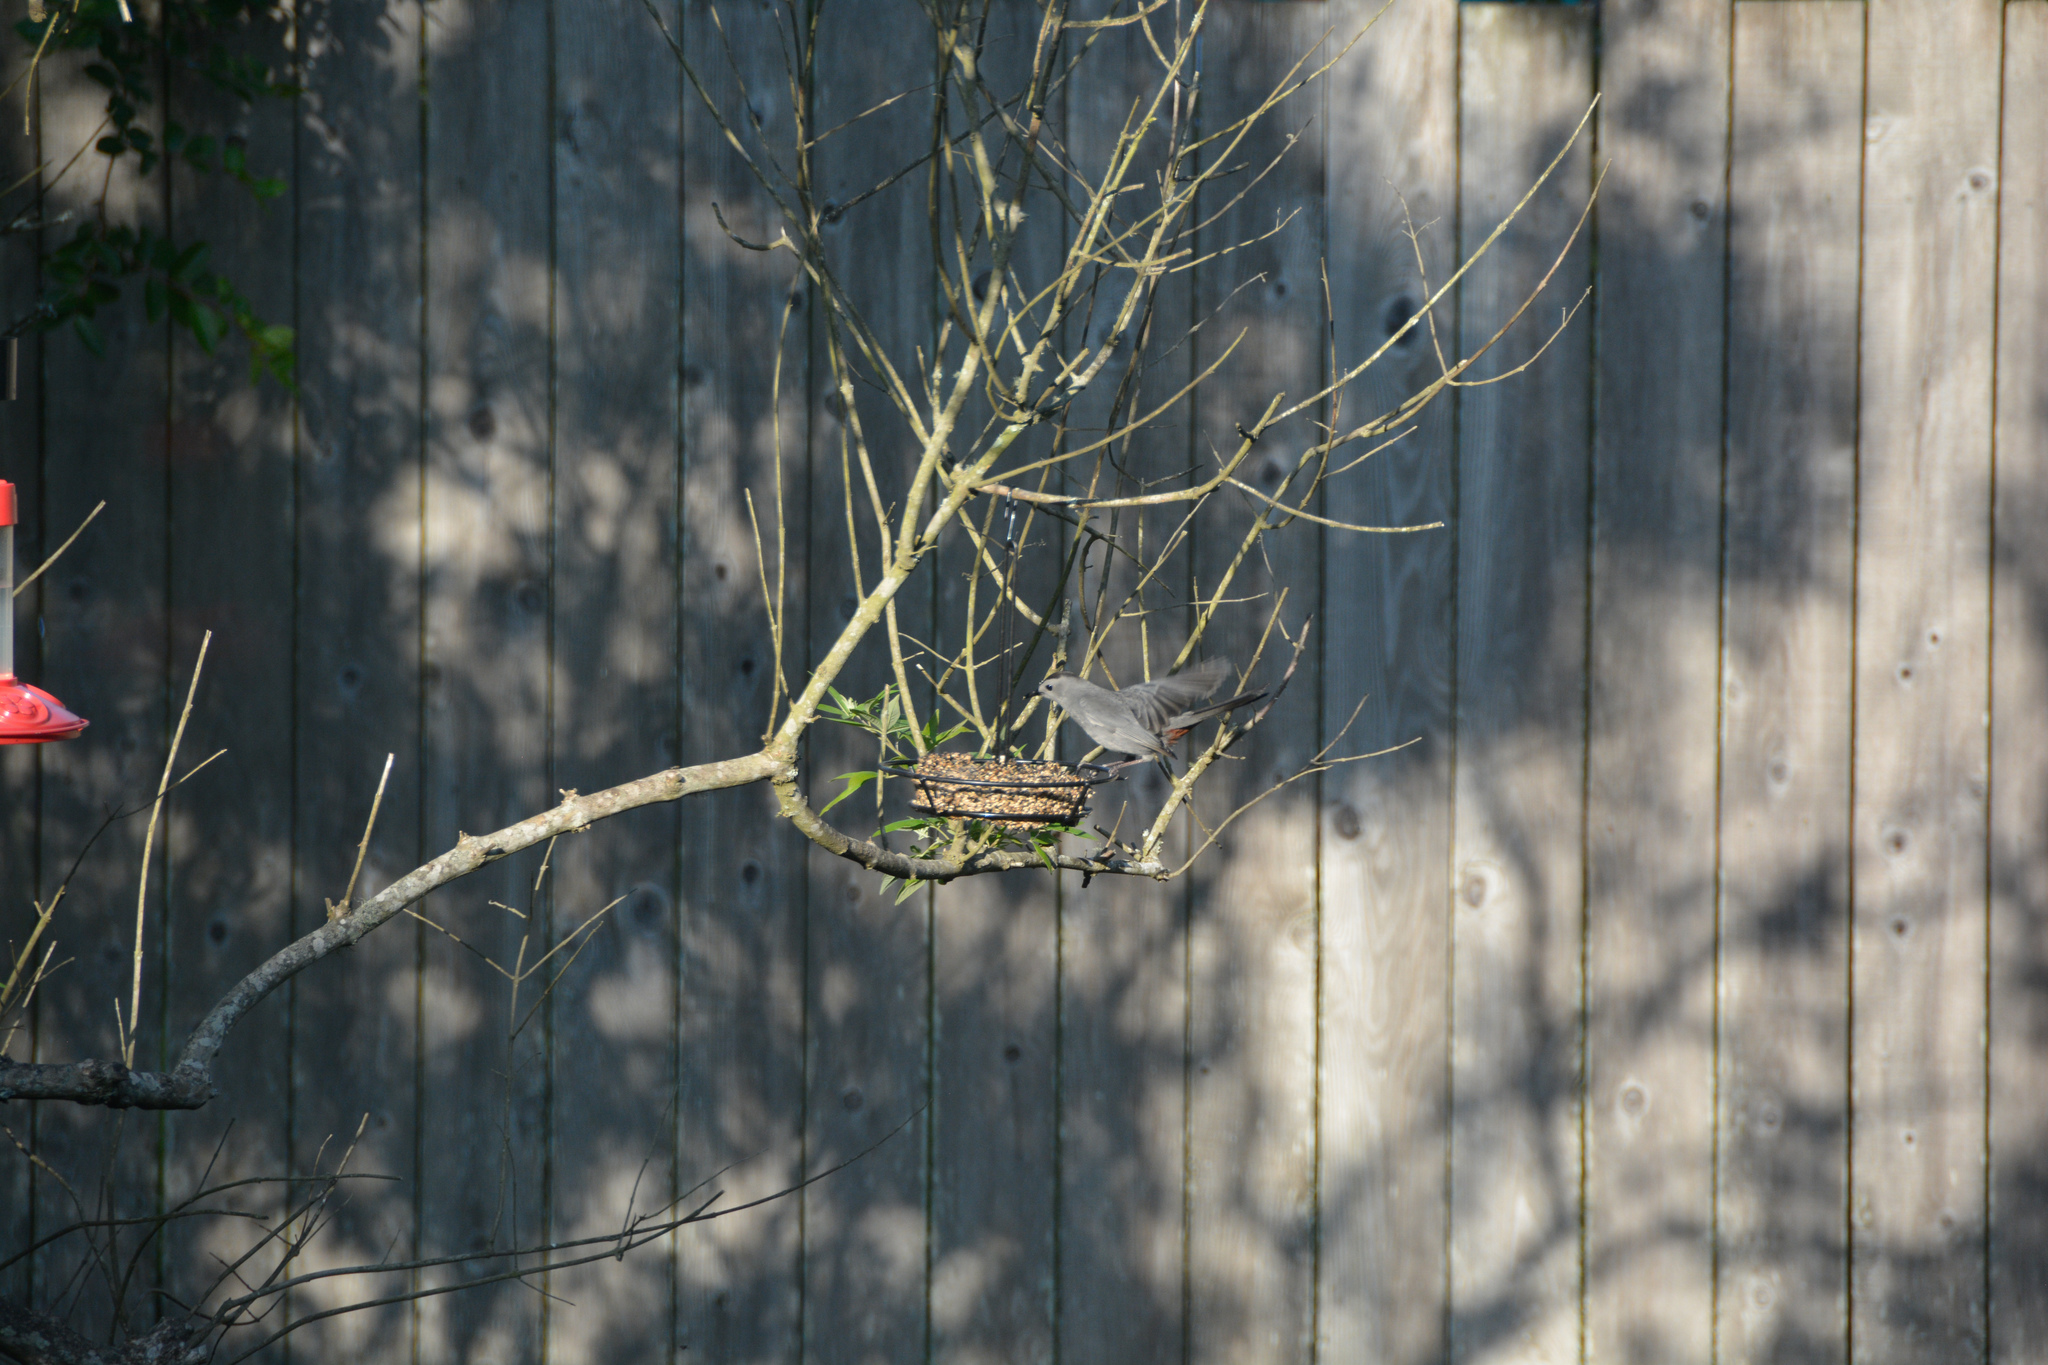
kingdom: Animalia
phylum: Chordata
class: Aves
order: Passeriformes
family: Mimidae
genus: Dumetella
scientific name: Dumetella carolinensis
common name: Gray catbird
